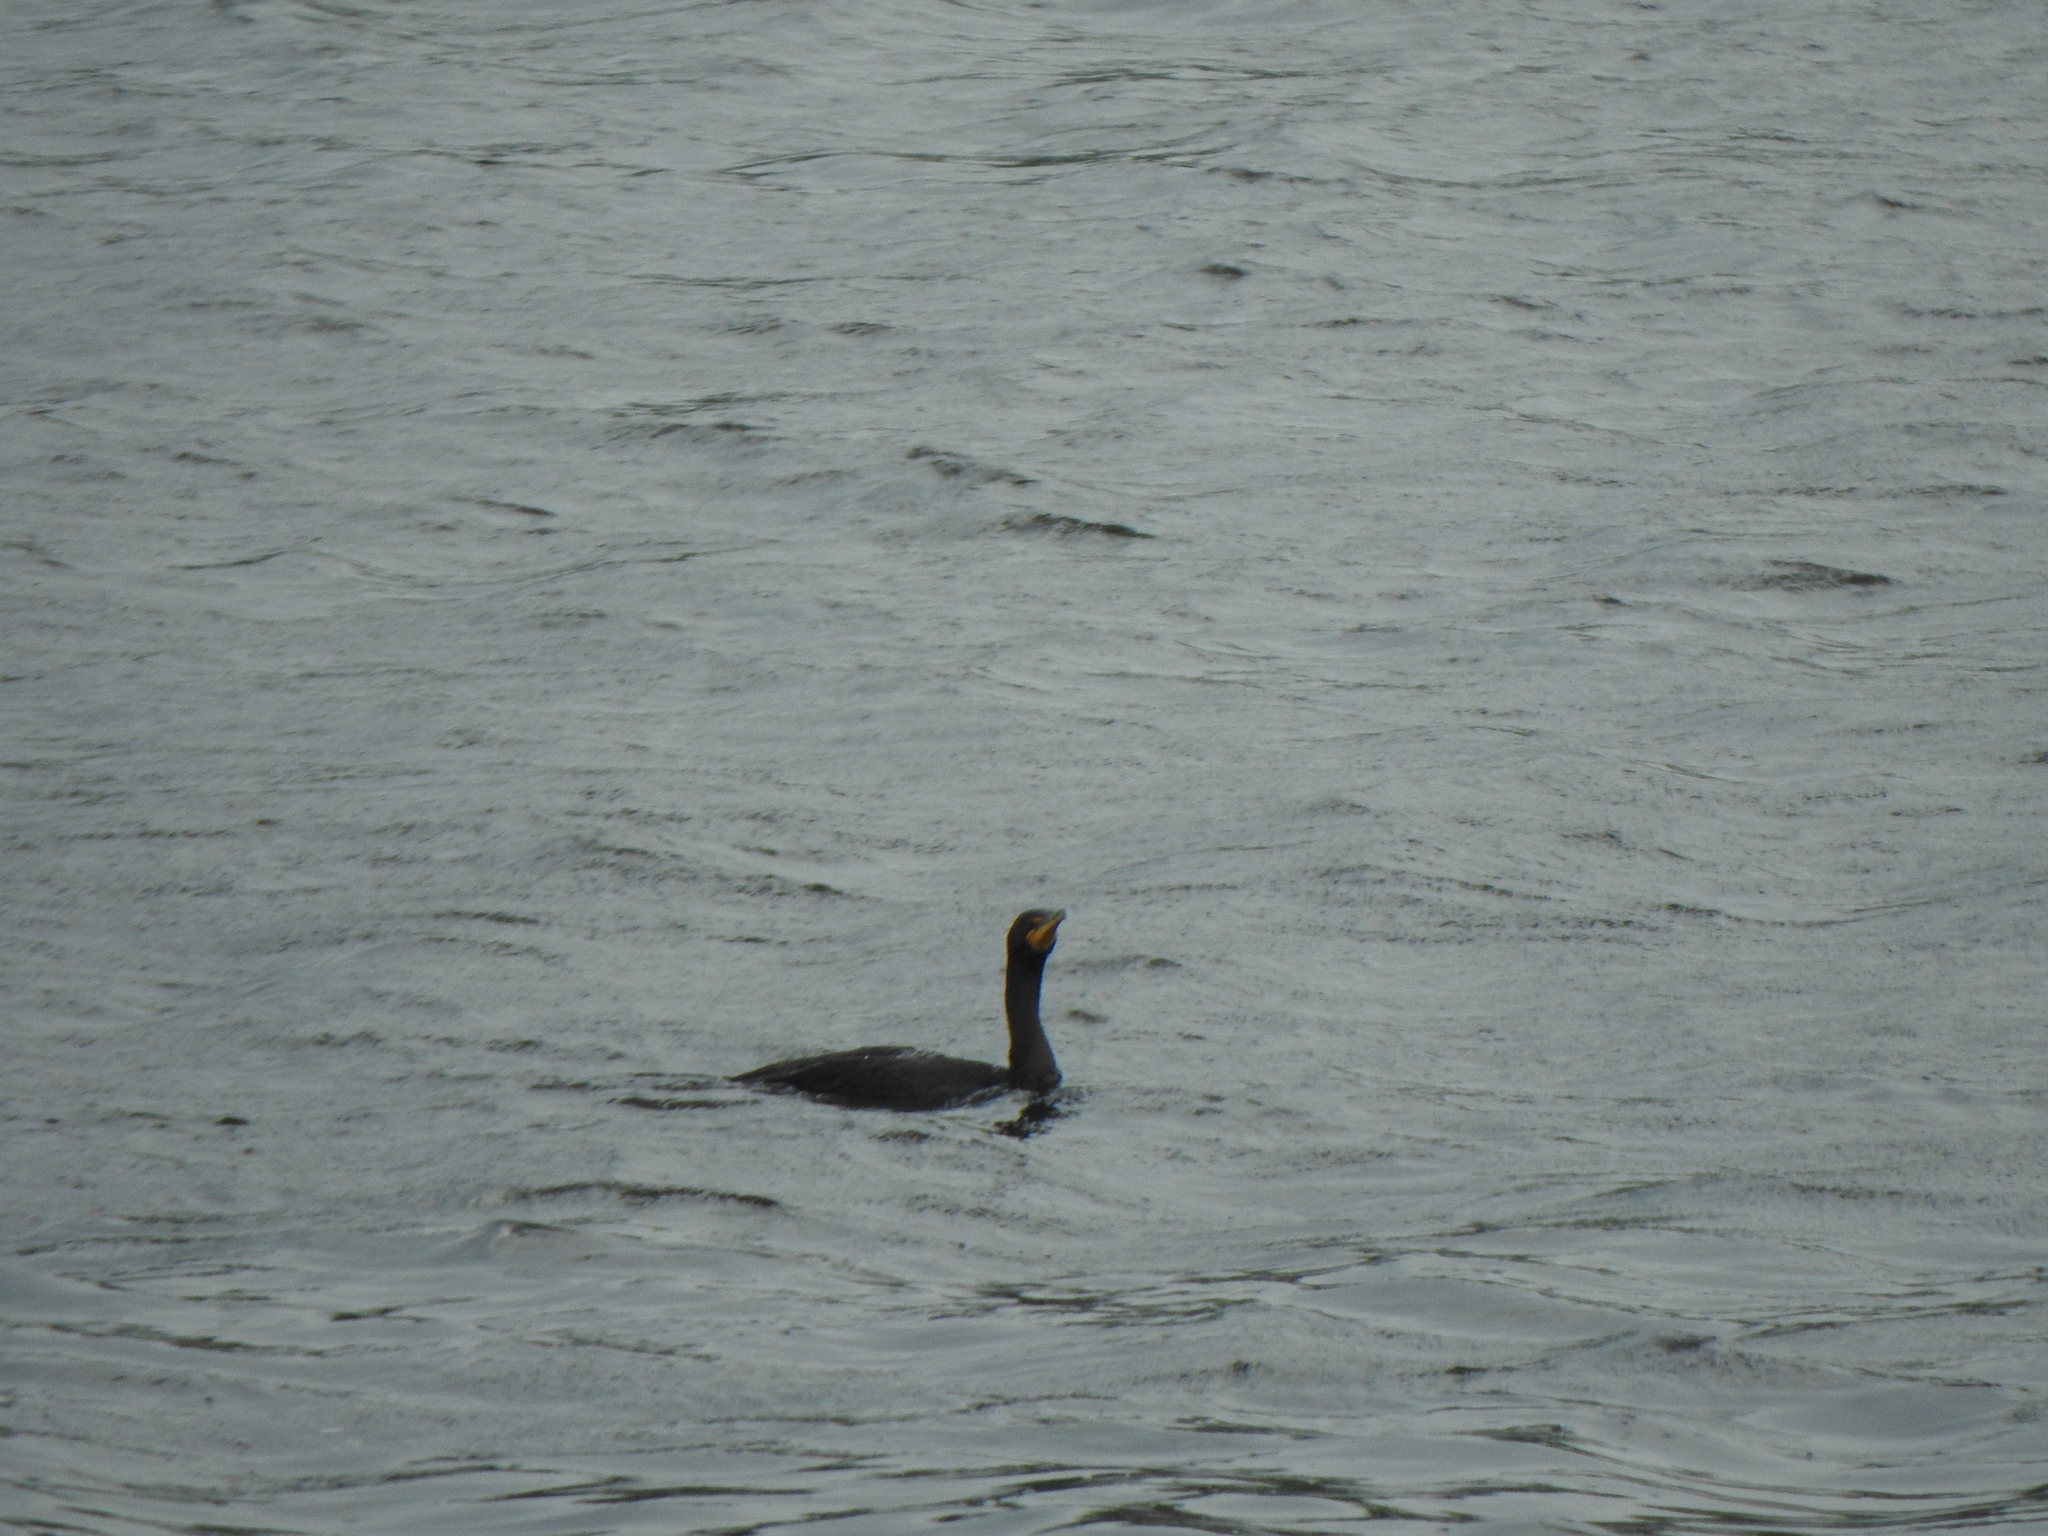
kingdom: Animalia
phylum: Chordata
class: Aves
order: Suliformes
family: Phalacrocoracidae
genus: Phalacrocorax
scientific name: Phalacrocorax auritus
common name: Double-crested cormorant
